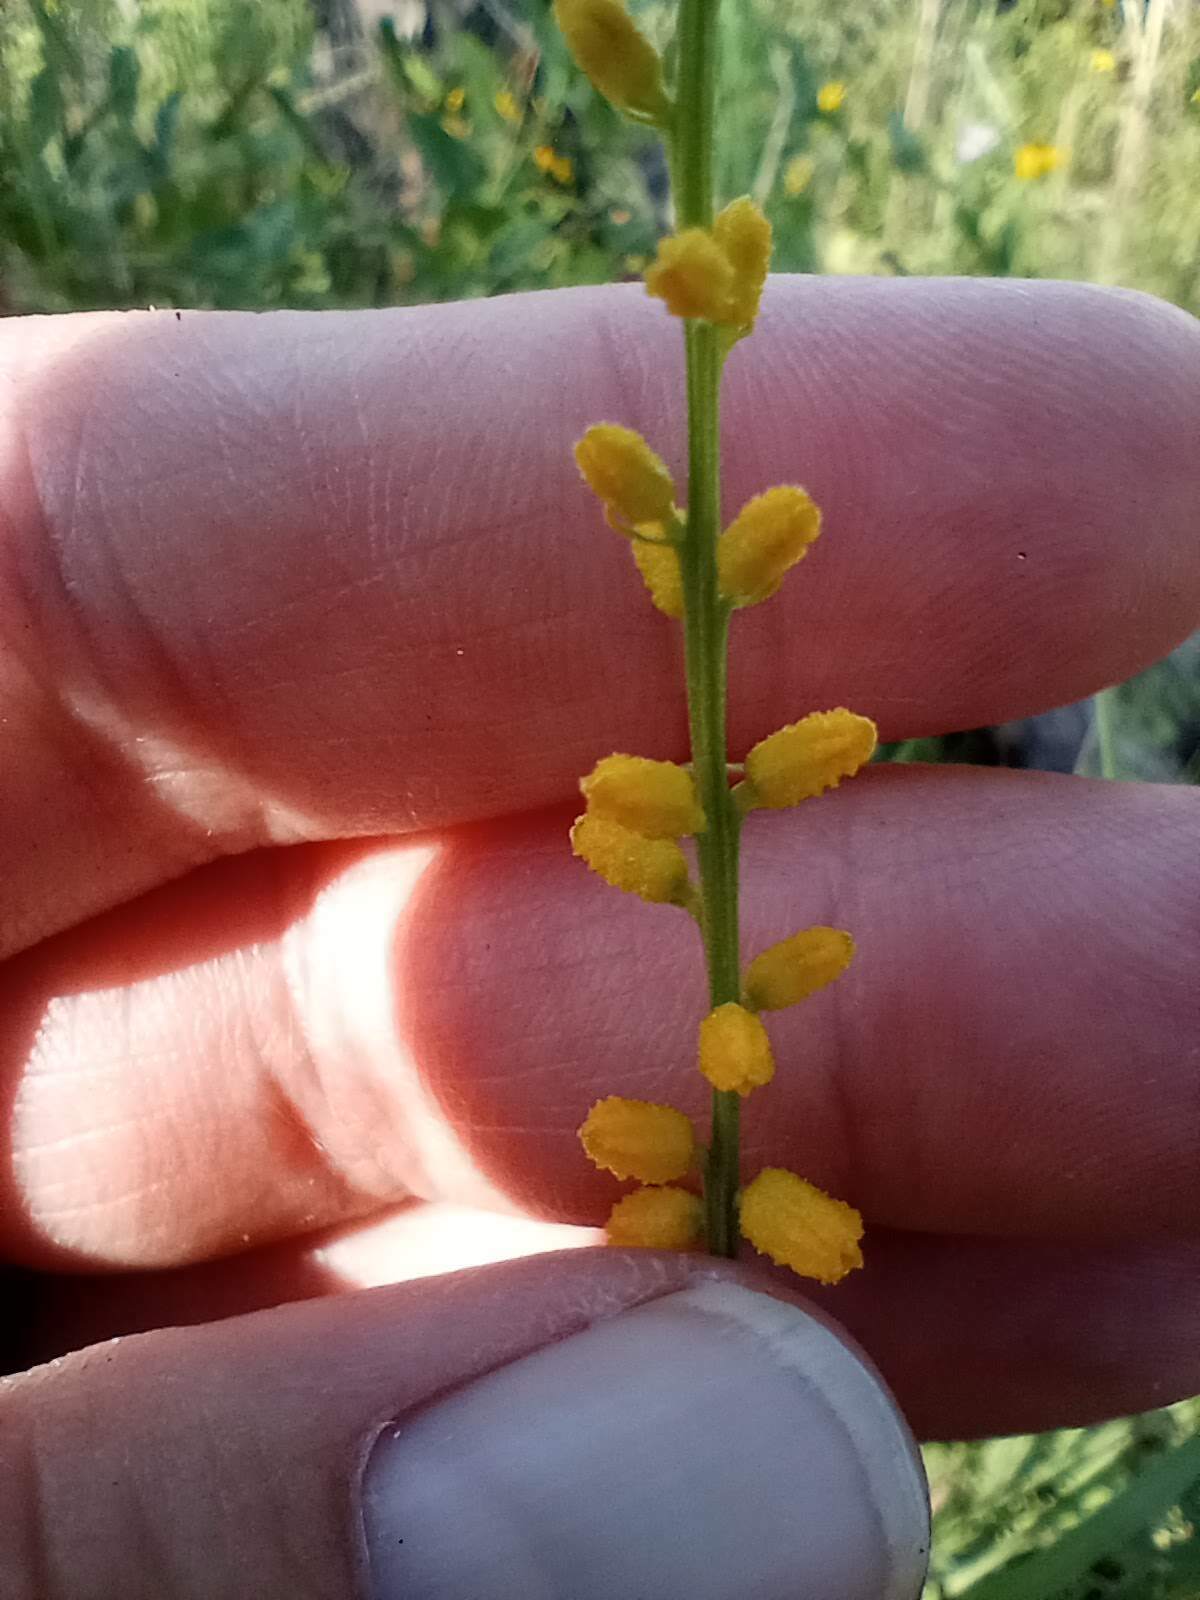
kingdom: Plantae
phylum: Tracheophyta
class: Liliopsida
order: Dioscoreales
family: Nartheciaceae
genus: Aletris
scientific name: Aletris aurea
